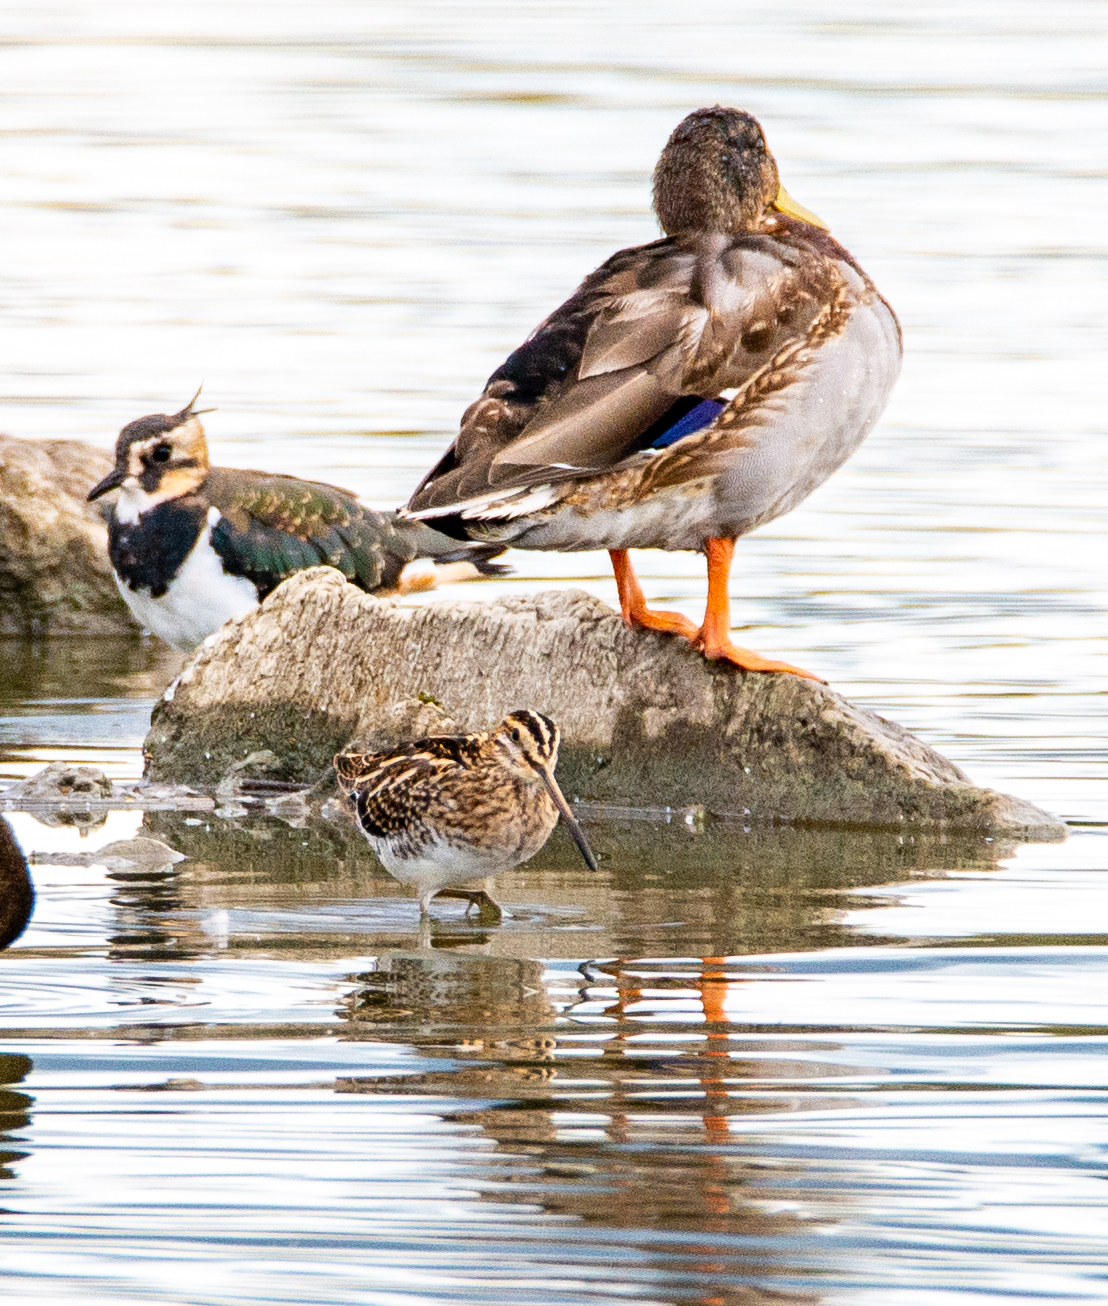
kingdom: Animalia
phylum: Chordata
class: Aves
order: Charadriiformes
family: Charadriidae
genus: Vanellus
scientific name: Vanellus vanellus
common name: Northern lapwing
